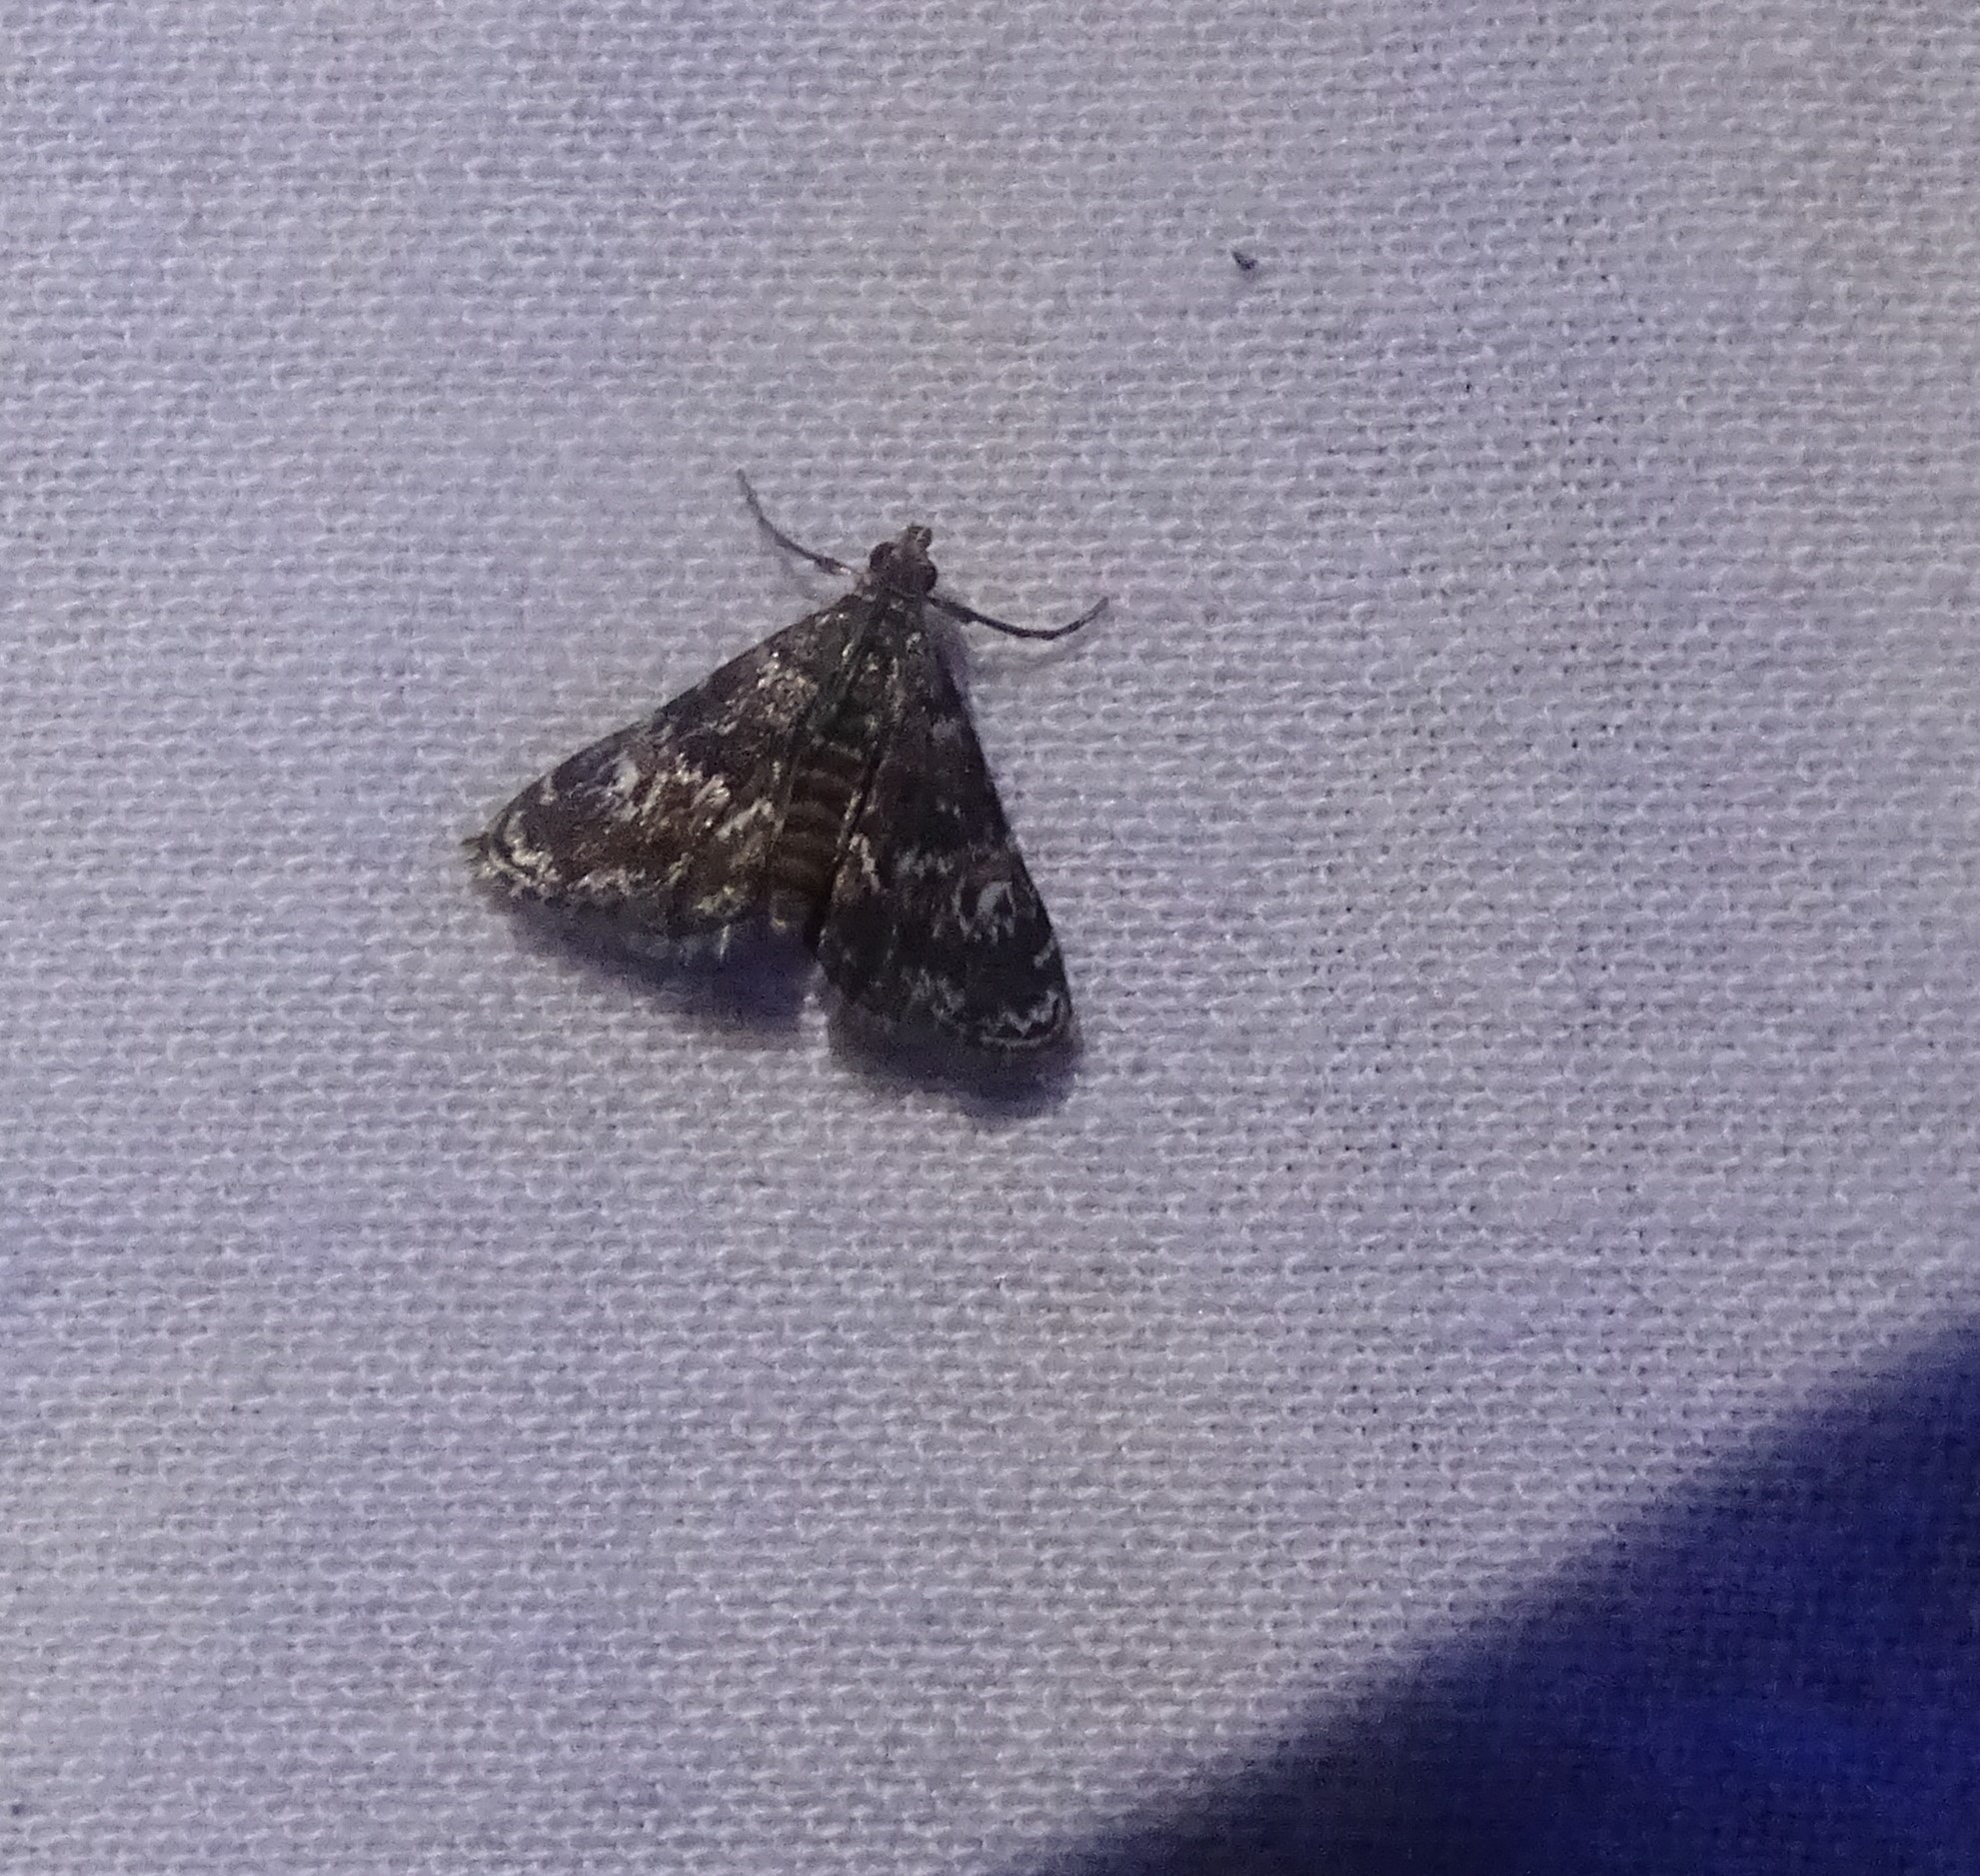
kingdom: Animalia
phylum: Arthropoda
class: Insecta
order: Lepidoptera
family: Crambidae
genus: Elophila
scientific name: Elophila obliteralis
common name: Waterlily leafcutter moth
